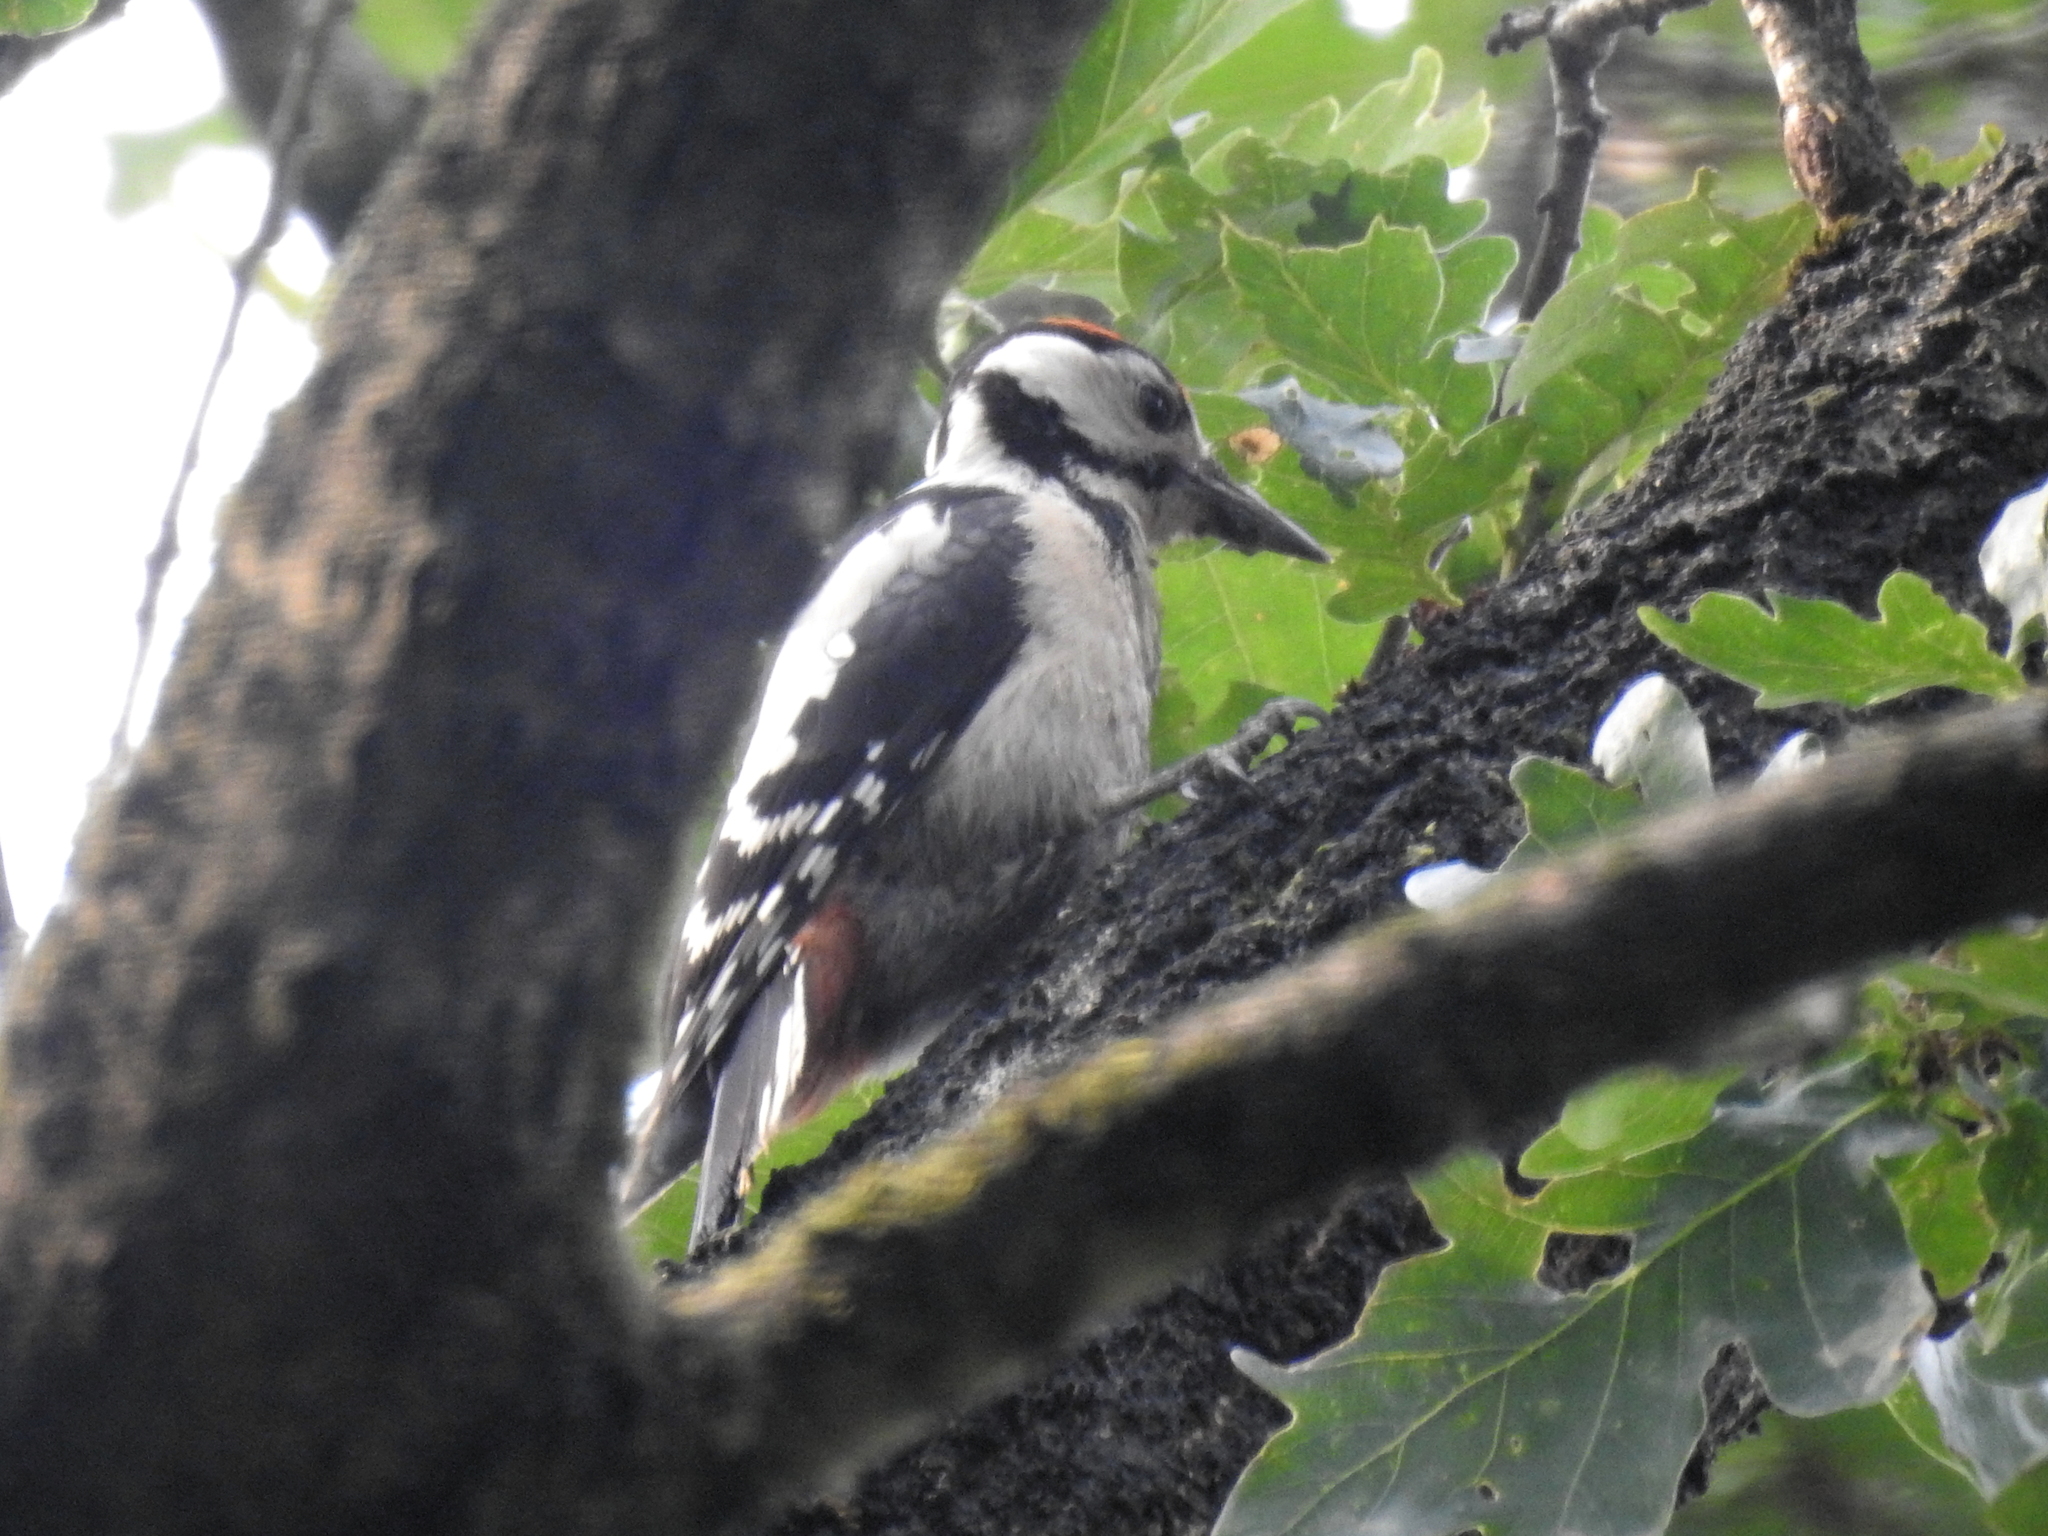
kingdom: Animalia
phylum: Chordata
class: Aves
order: Piciformes
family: Picidae
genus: Dendrocopos
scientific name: Dendrocopos major
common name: Great spotted woodpecker
